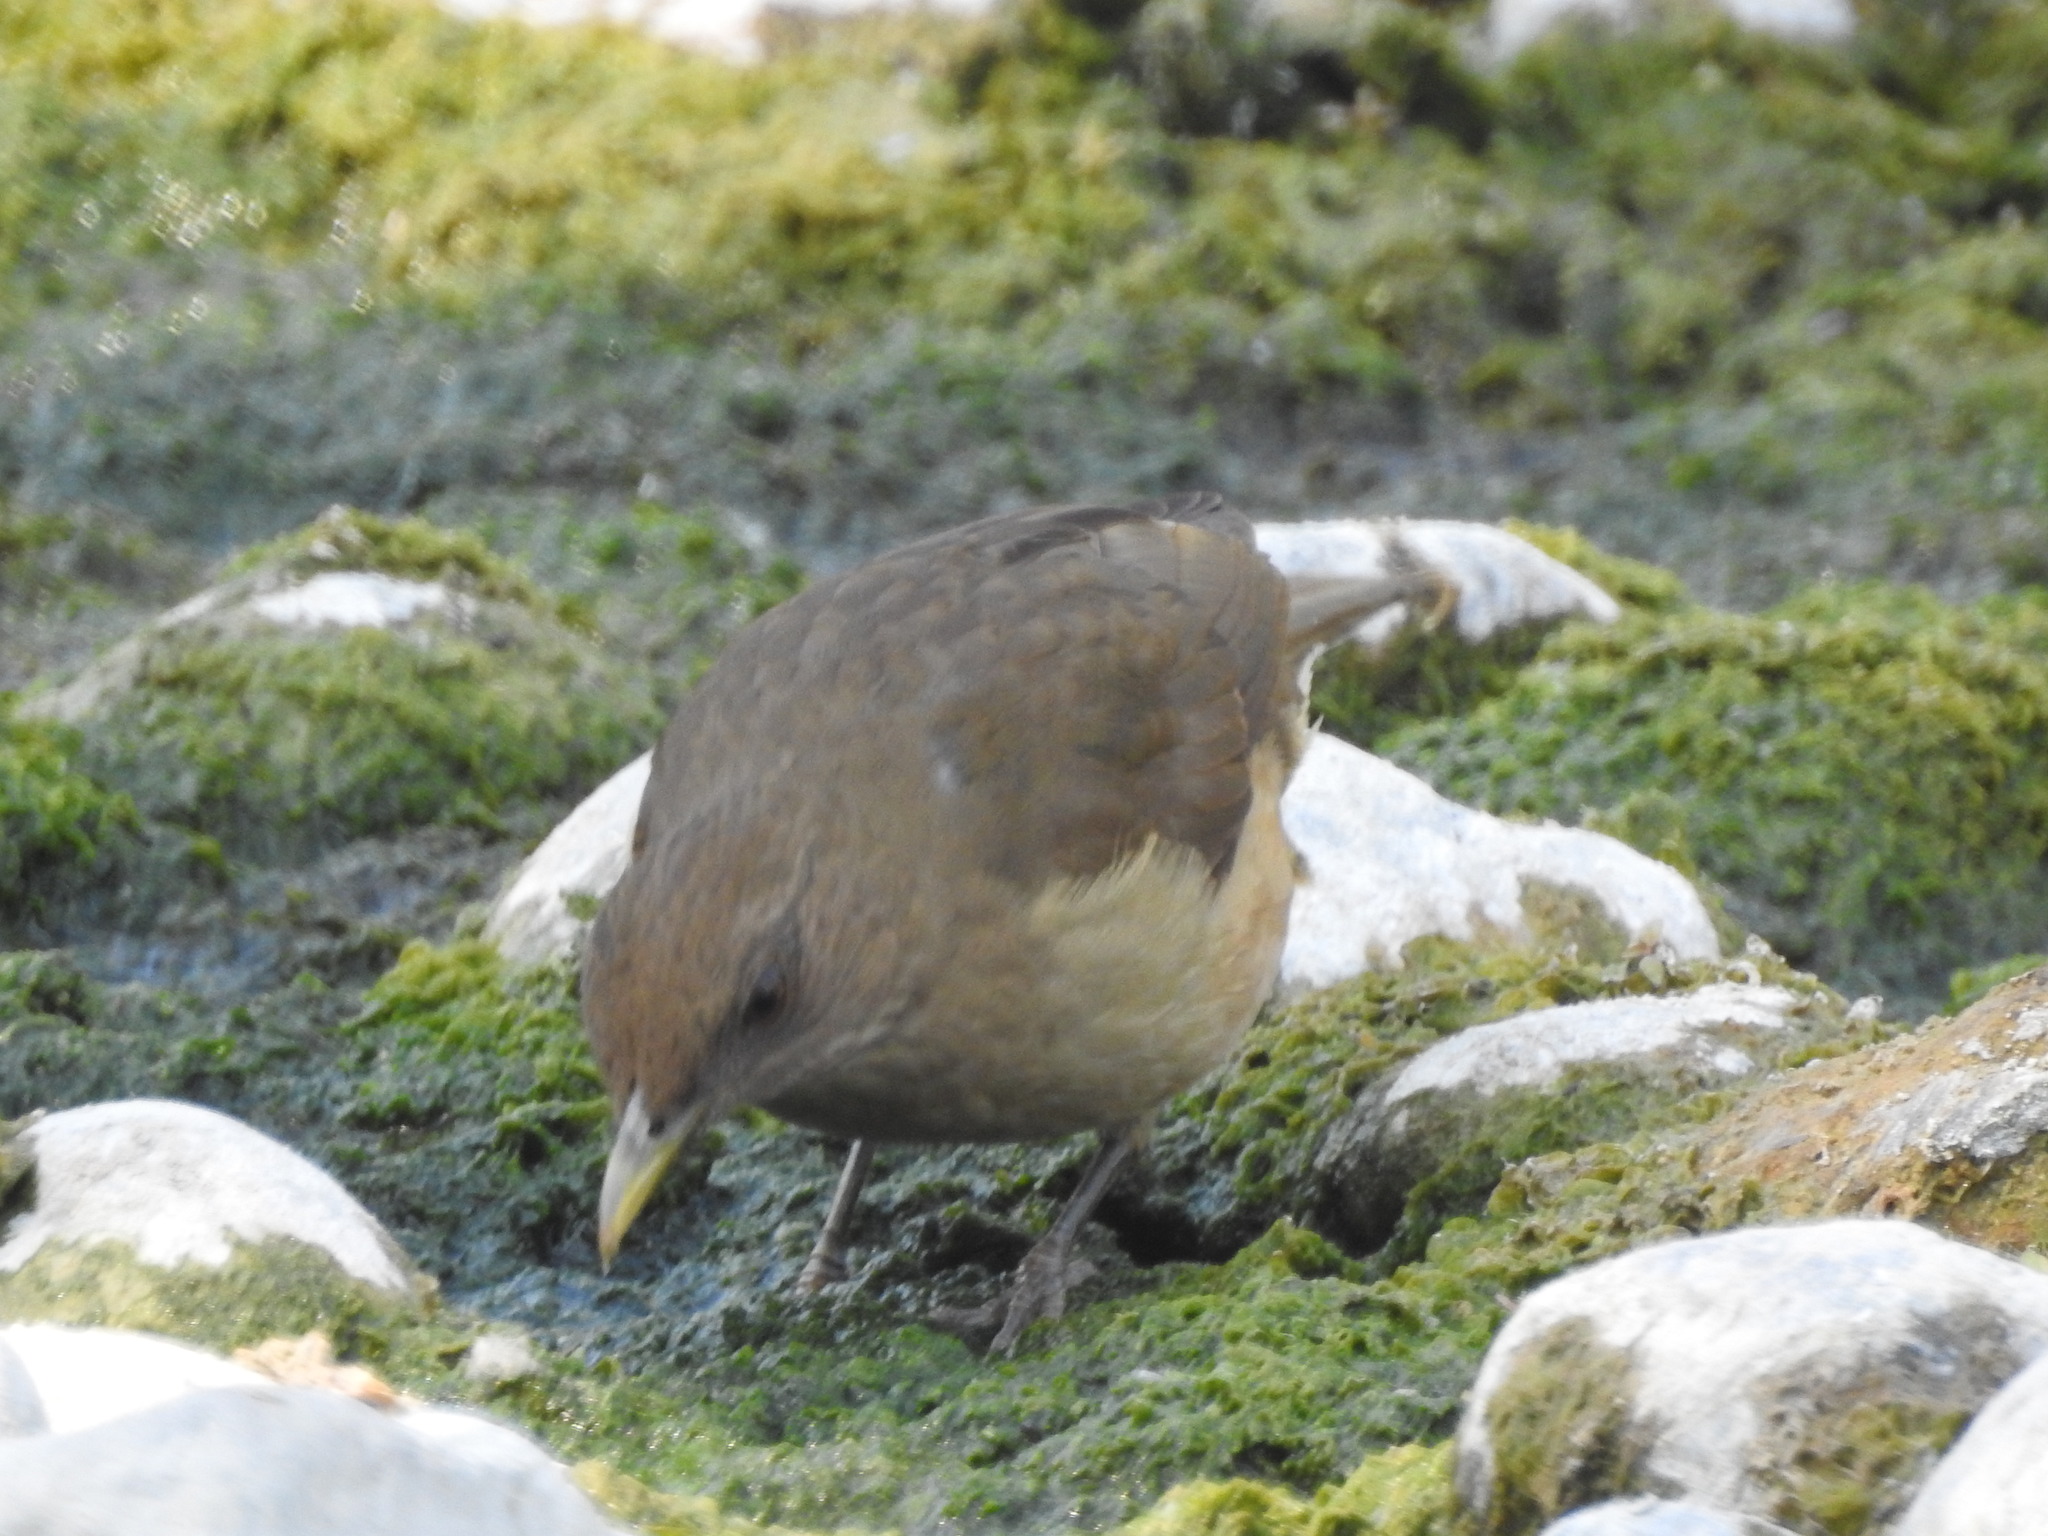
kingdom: Animalia
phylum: Chordata
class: Aves
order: Passeriformes
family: Turdidae
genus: Turdus
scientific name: Turdus grayi
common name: Clay-colored thrush
